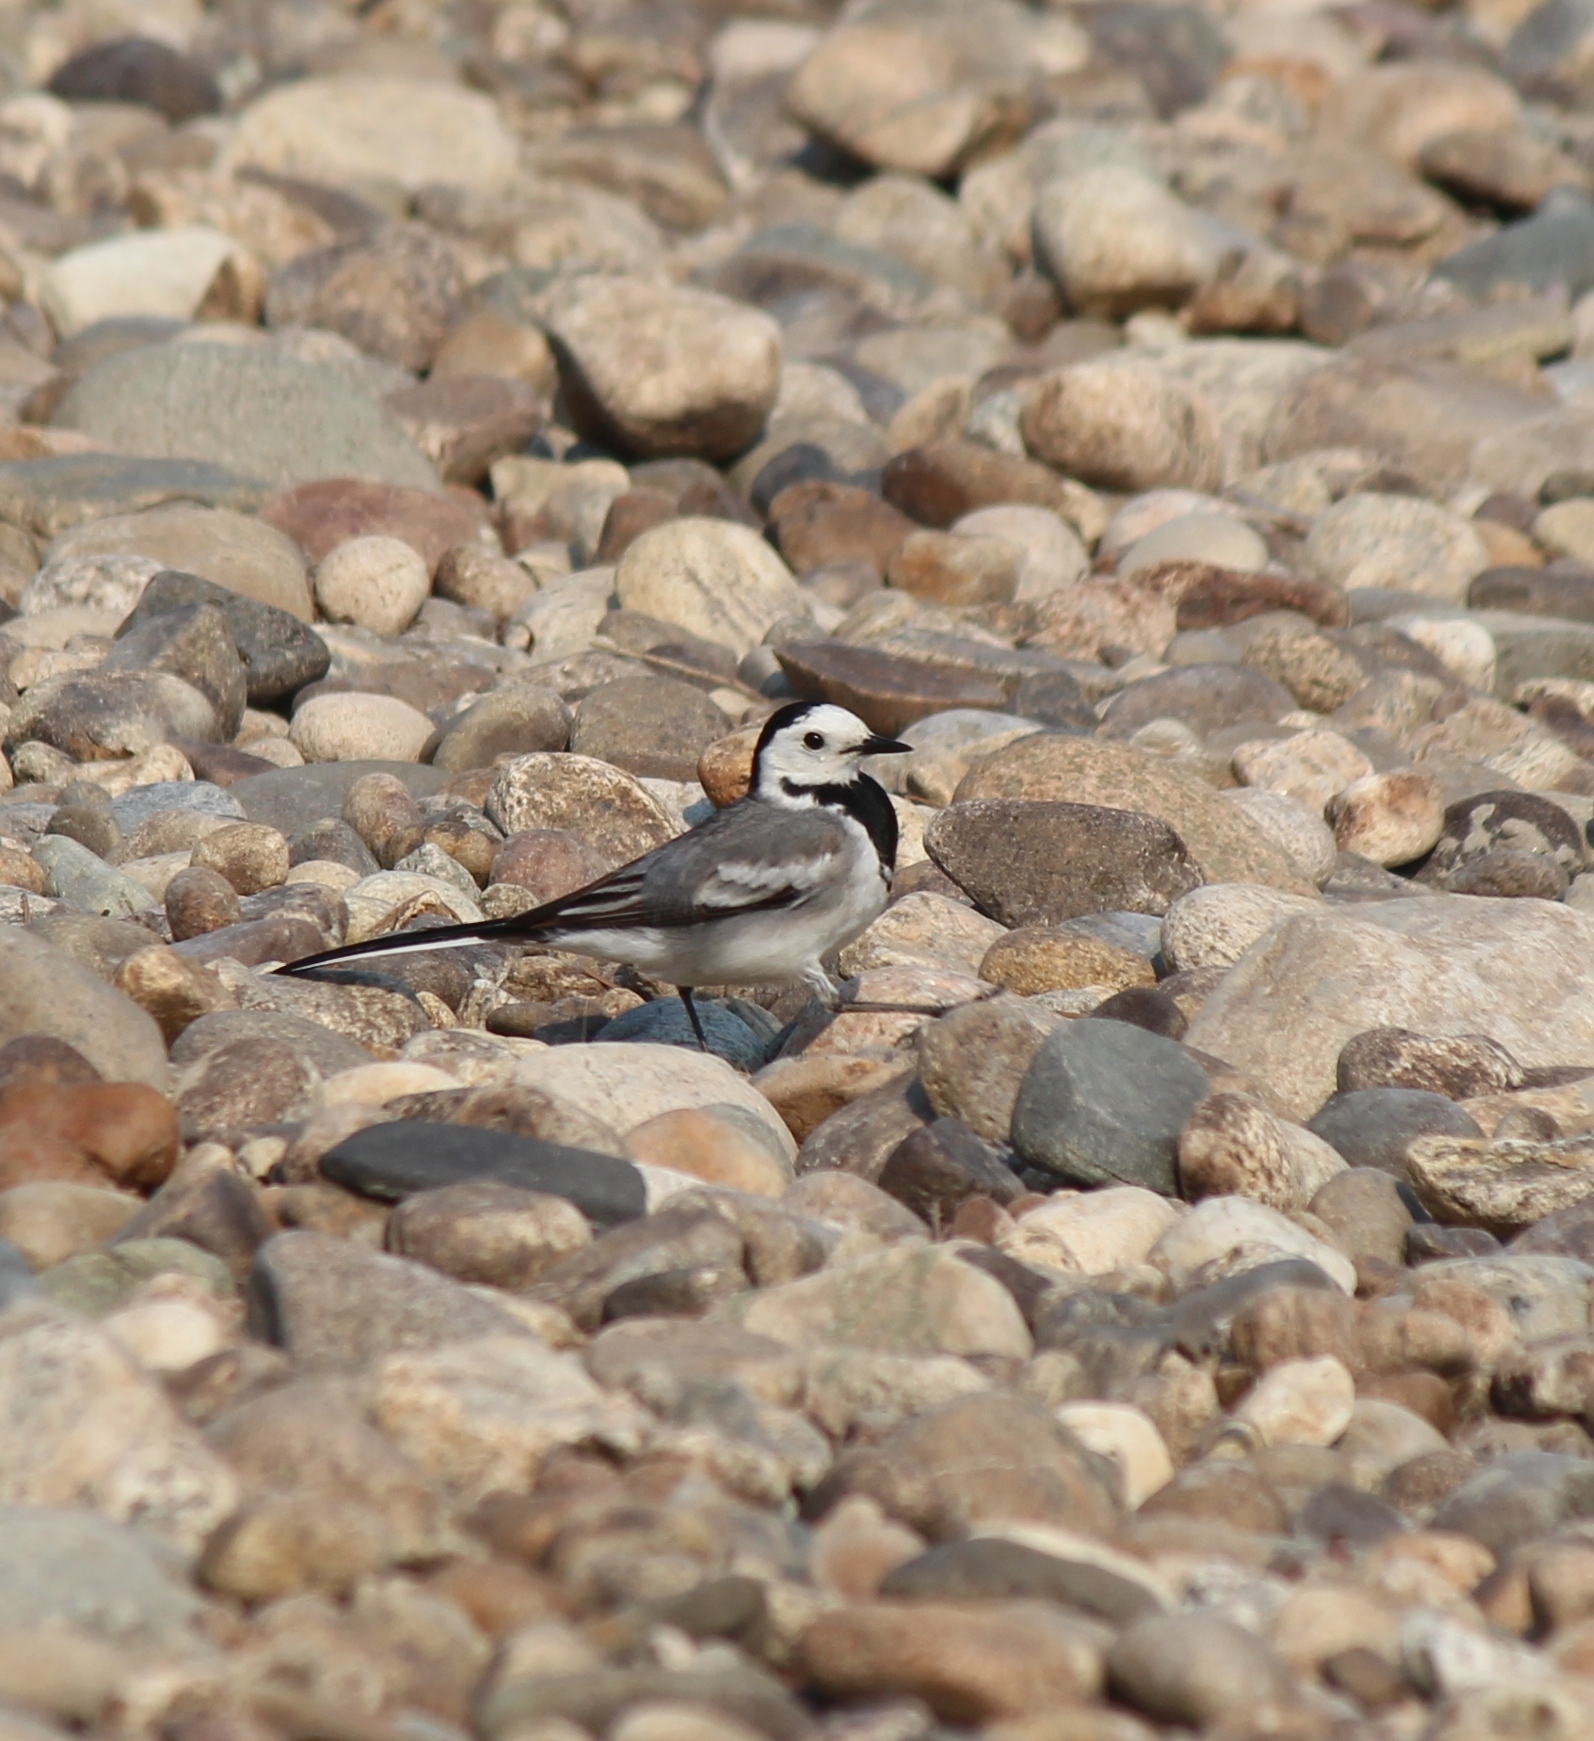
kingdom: Animalia
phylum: Chordata
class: Aves
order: Passeriformes
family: Motacillidae
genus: Motacilla
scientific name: Motacilla alba
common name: White wagtail
